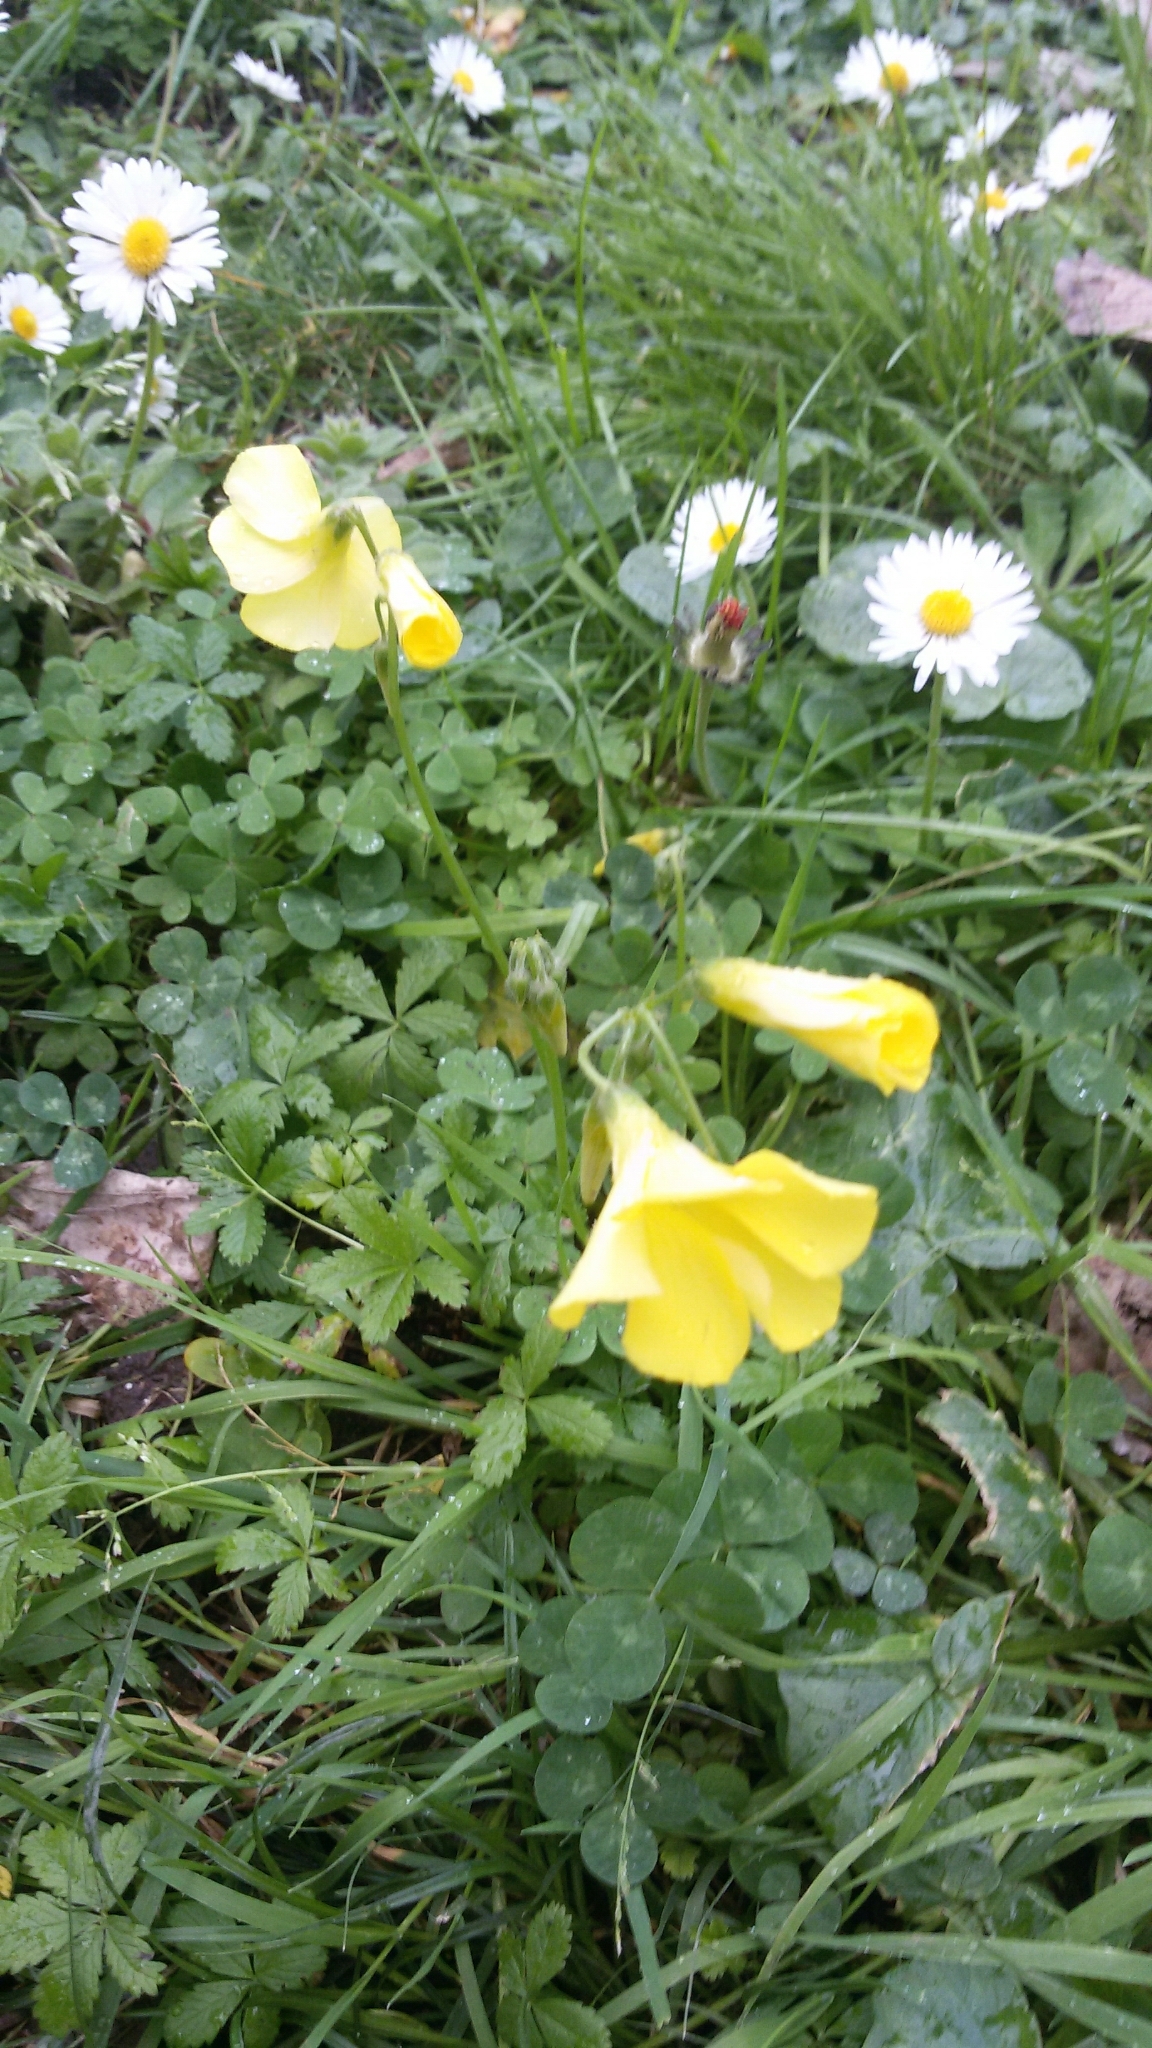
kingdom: Plantae
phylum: Tracheophyta
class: Magnoliopsida
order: Oxalidales
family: Oxalidaceae
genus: Oxalis
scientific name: Oxalis pes-caprae
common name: Bermuda-buttercup
